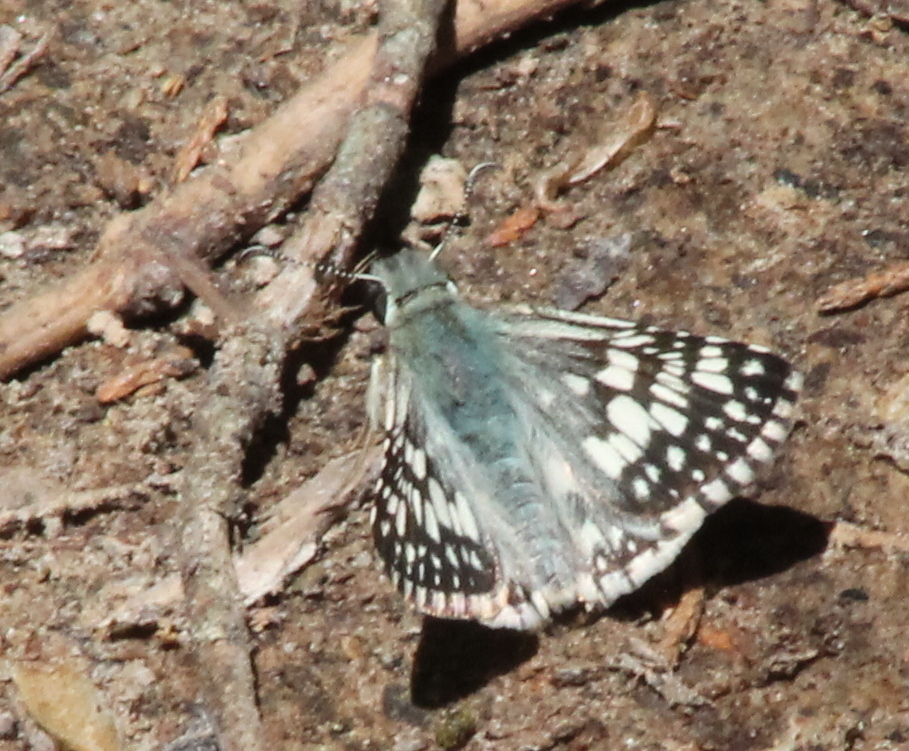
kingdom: Animalia
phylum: Arthropoda
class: Insecta
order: Lepidoptera
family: Hesperiidae
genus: Burnsius
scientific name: Burnsius communis
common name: Common checkered-skipper
